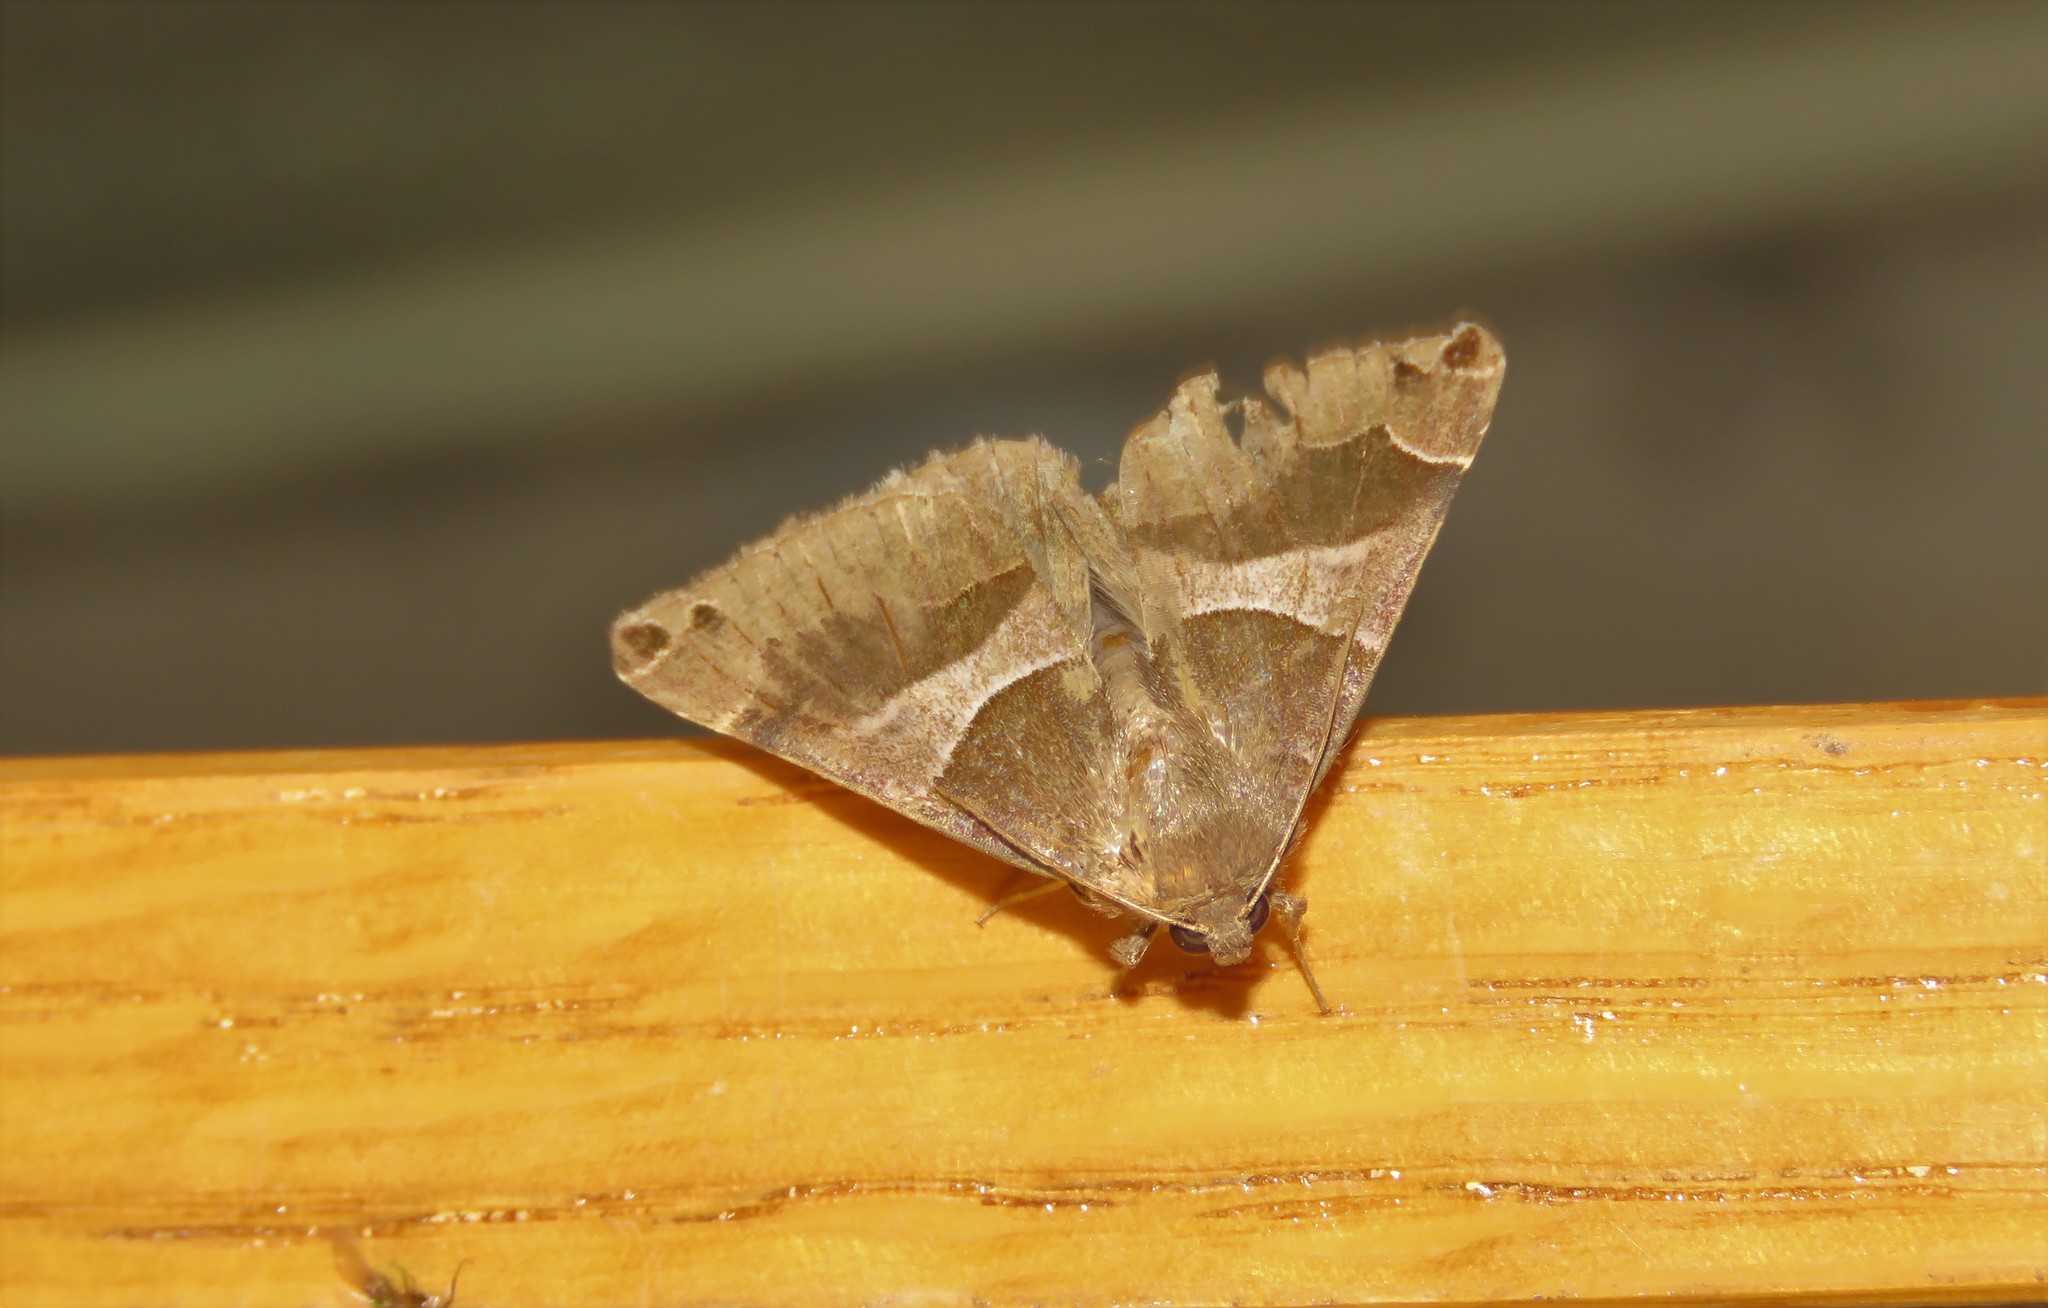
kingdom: Animalia
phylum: Arthropoda
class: Insecta
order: Lepidoptera
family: Erebidae
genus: Dysgonia
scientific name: Dysgonia algira
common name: Passenger
